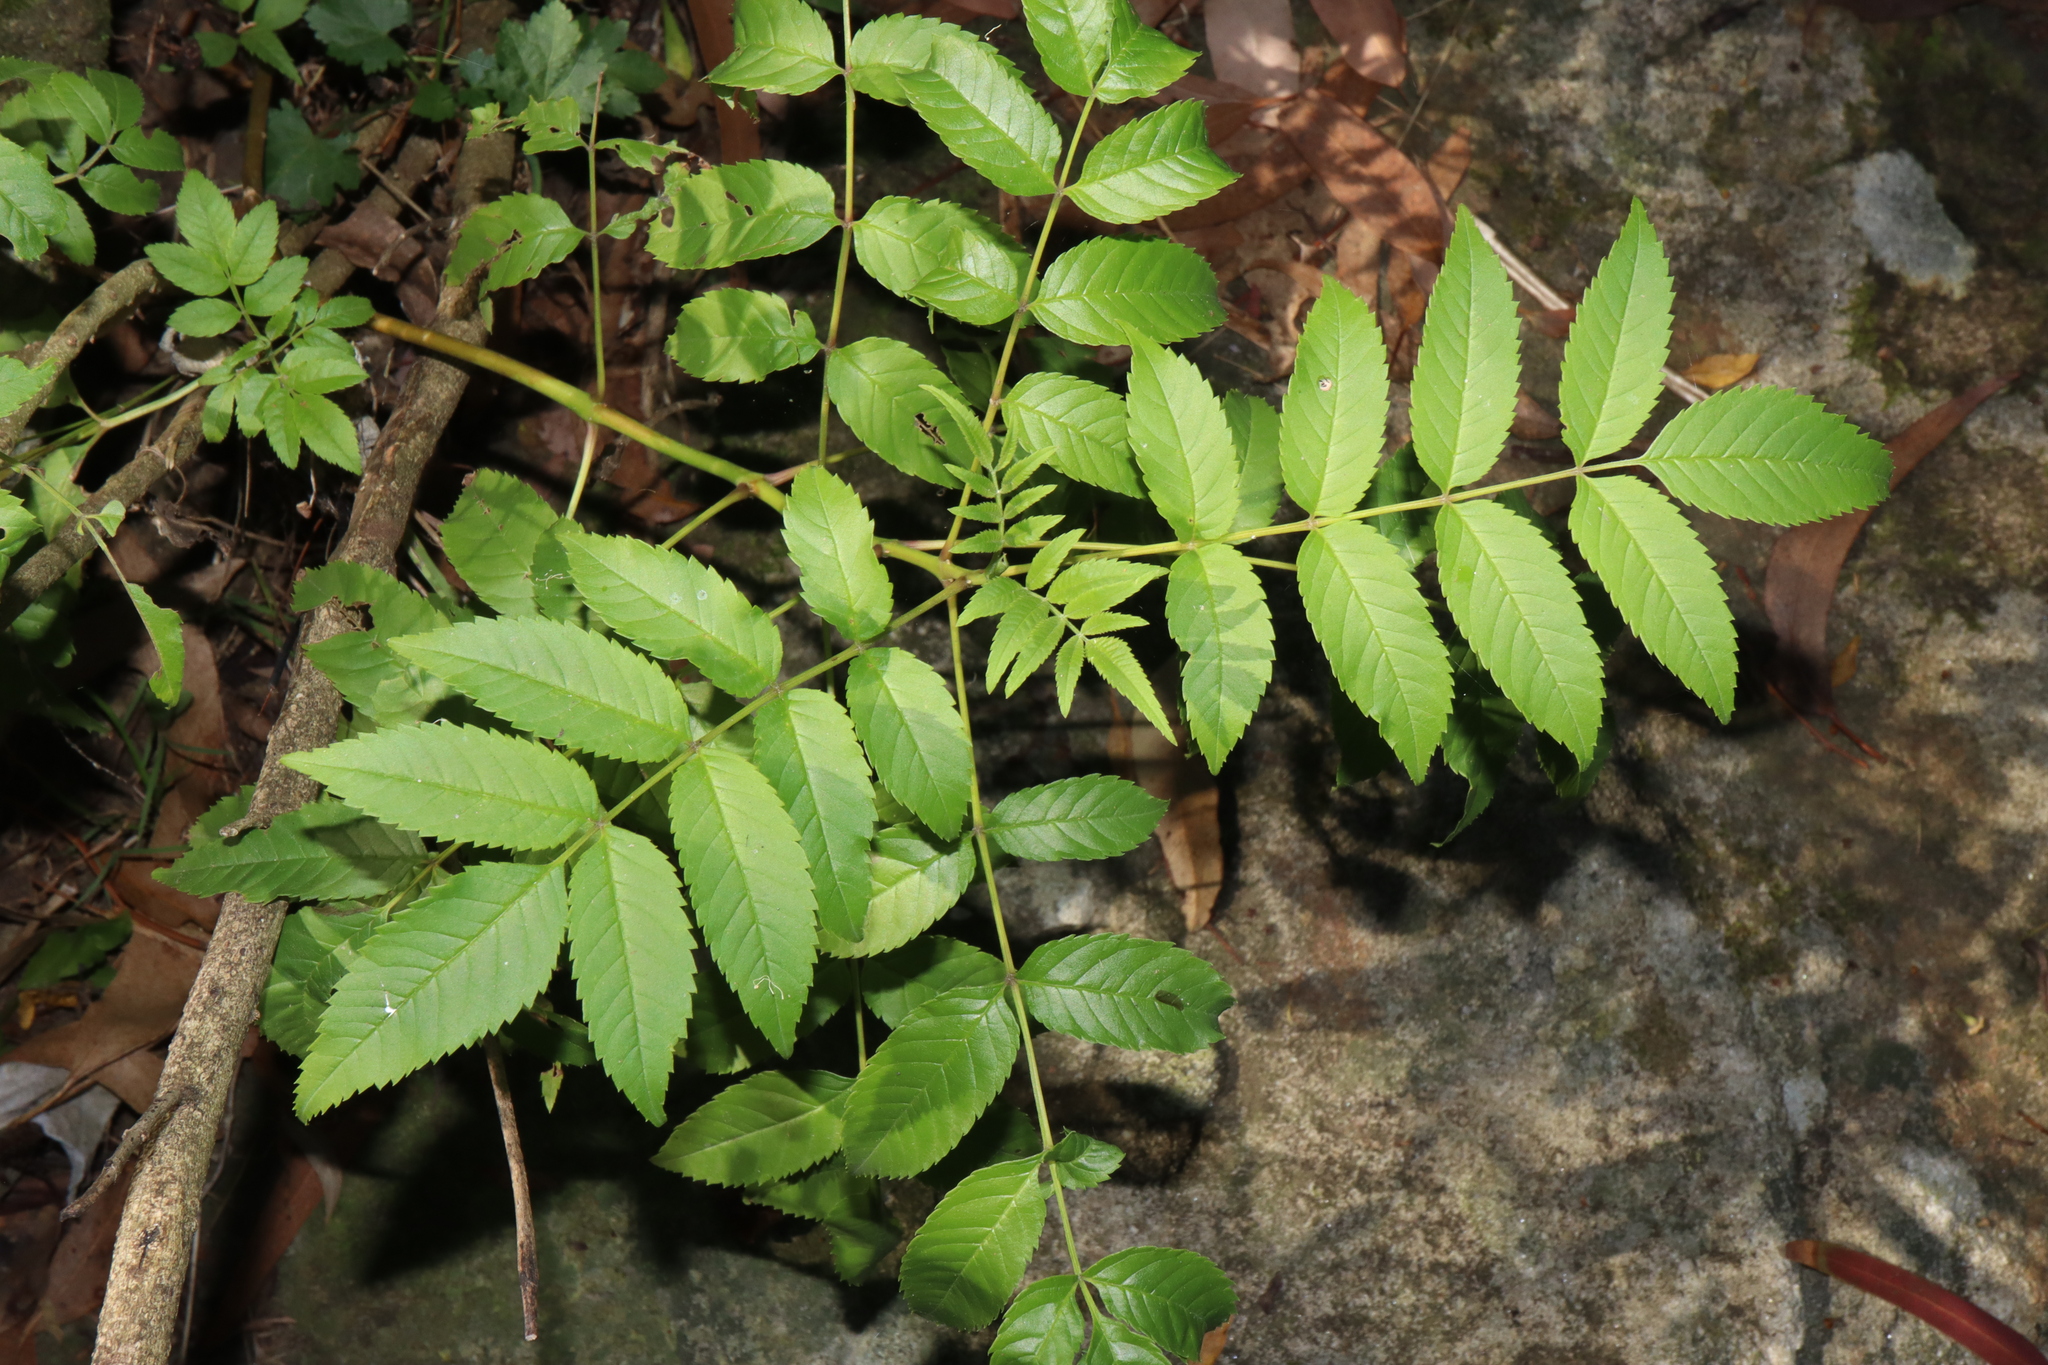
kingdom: Plantae
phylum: Tracheophyta
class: Magnoliopsida
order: Lamiales
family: Bignoniaceae
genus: Tecoma
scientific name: Tecoma stans
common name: Yellow trumpetbush
